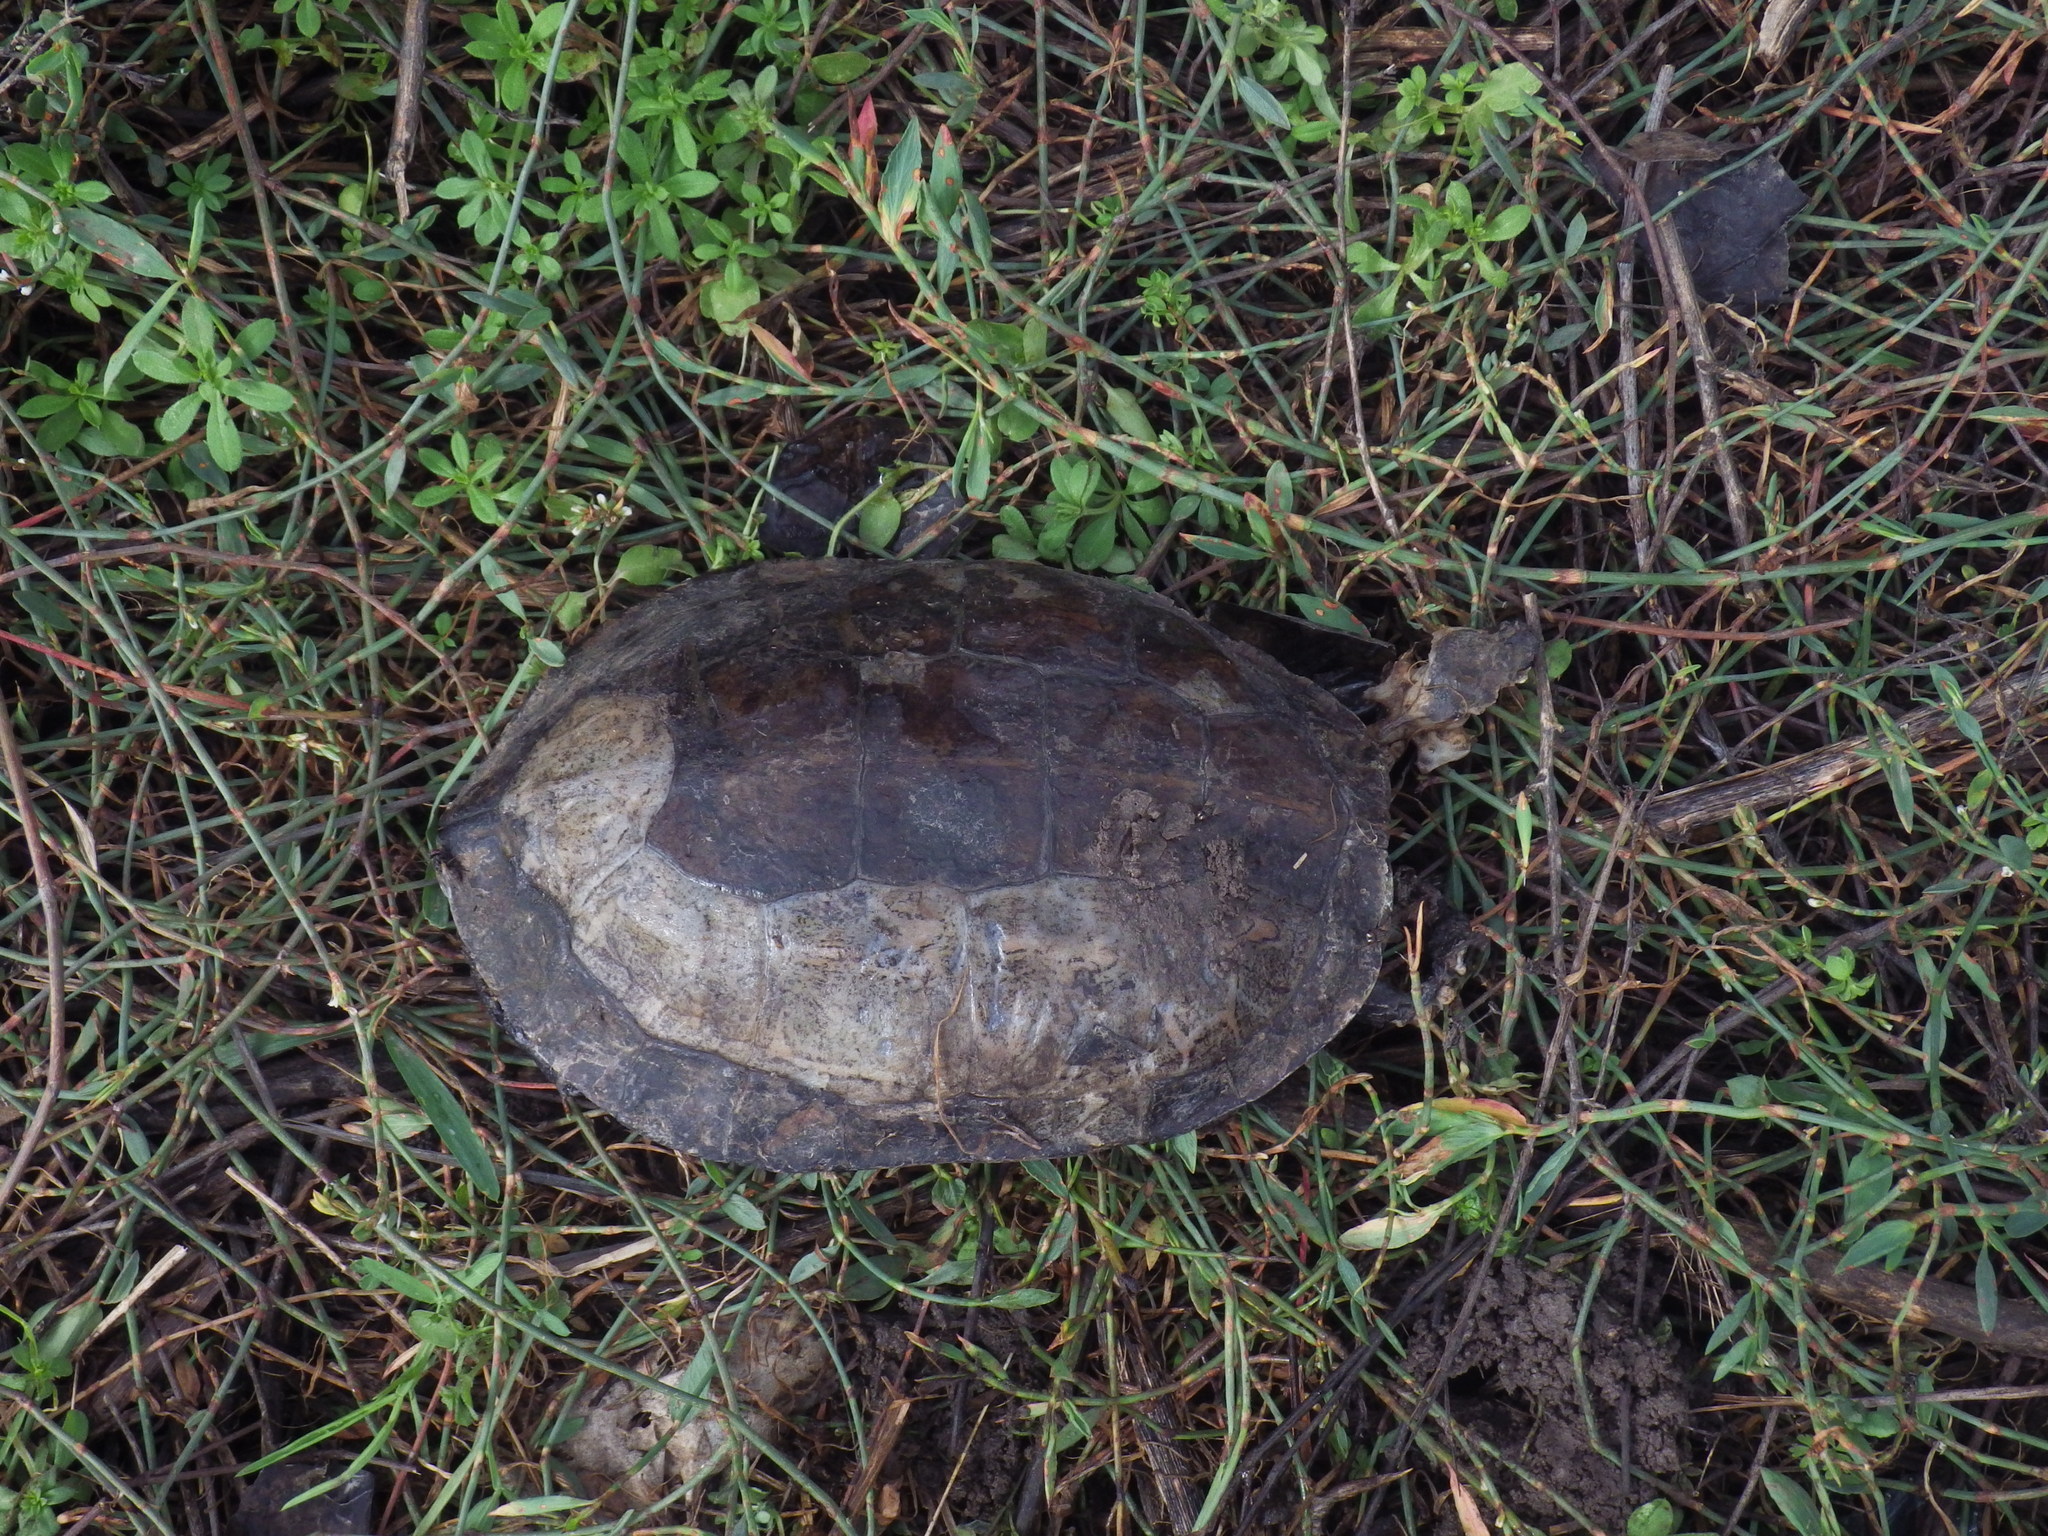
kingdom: Animalia
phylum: Chordata
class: Testudines
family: Geoemydidae
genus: Mauremys
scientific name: Mauremys rivulata
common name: Western caspian turtle
